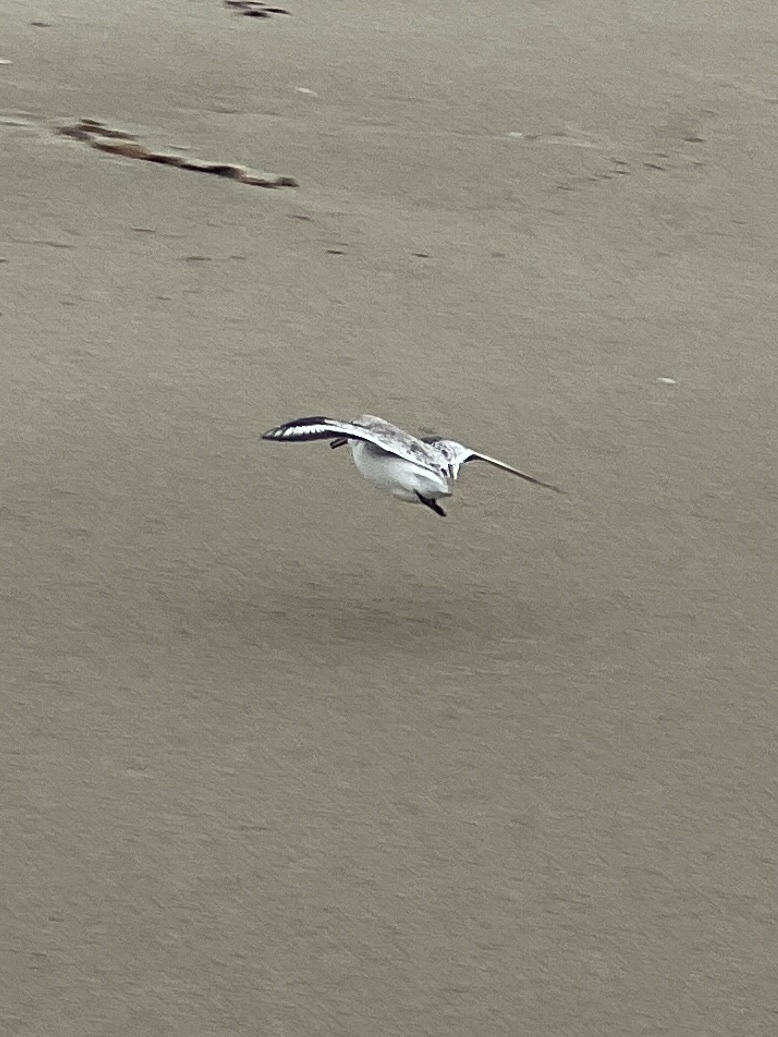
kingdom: Animalia
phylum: Chordata
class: Aves
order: Charadriiformes
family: Scolopacidae
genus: Calidris
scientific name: Calidris alba
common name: Sanderling
